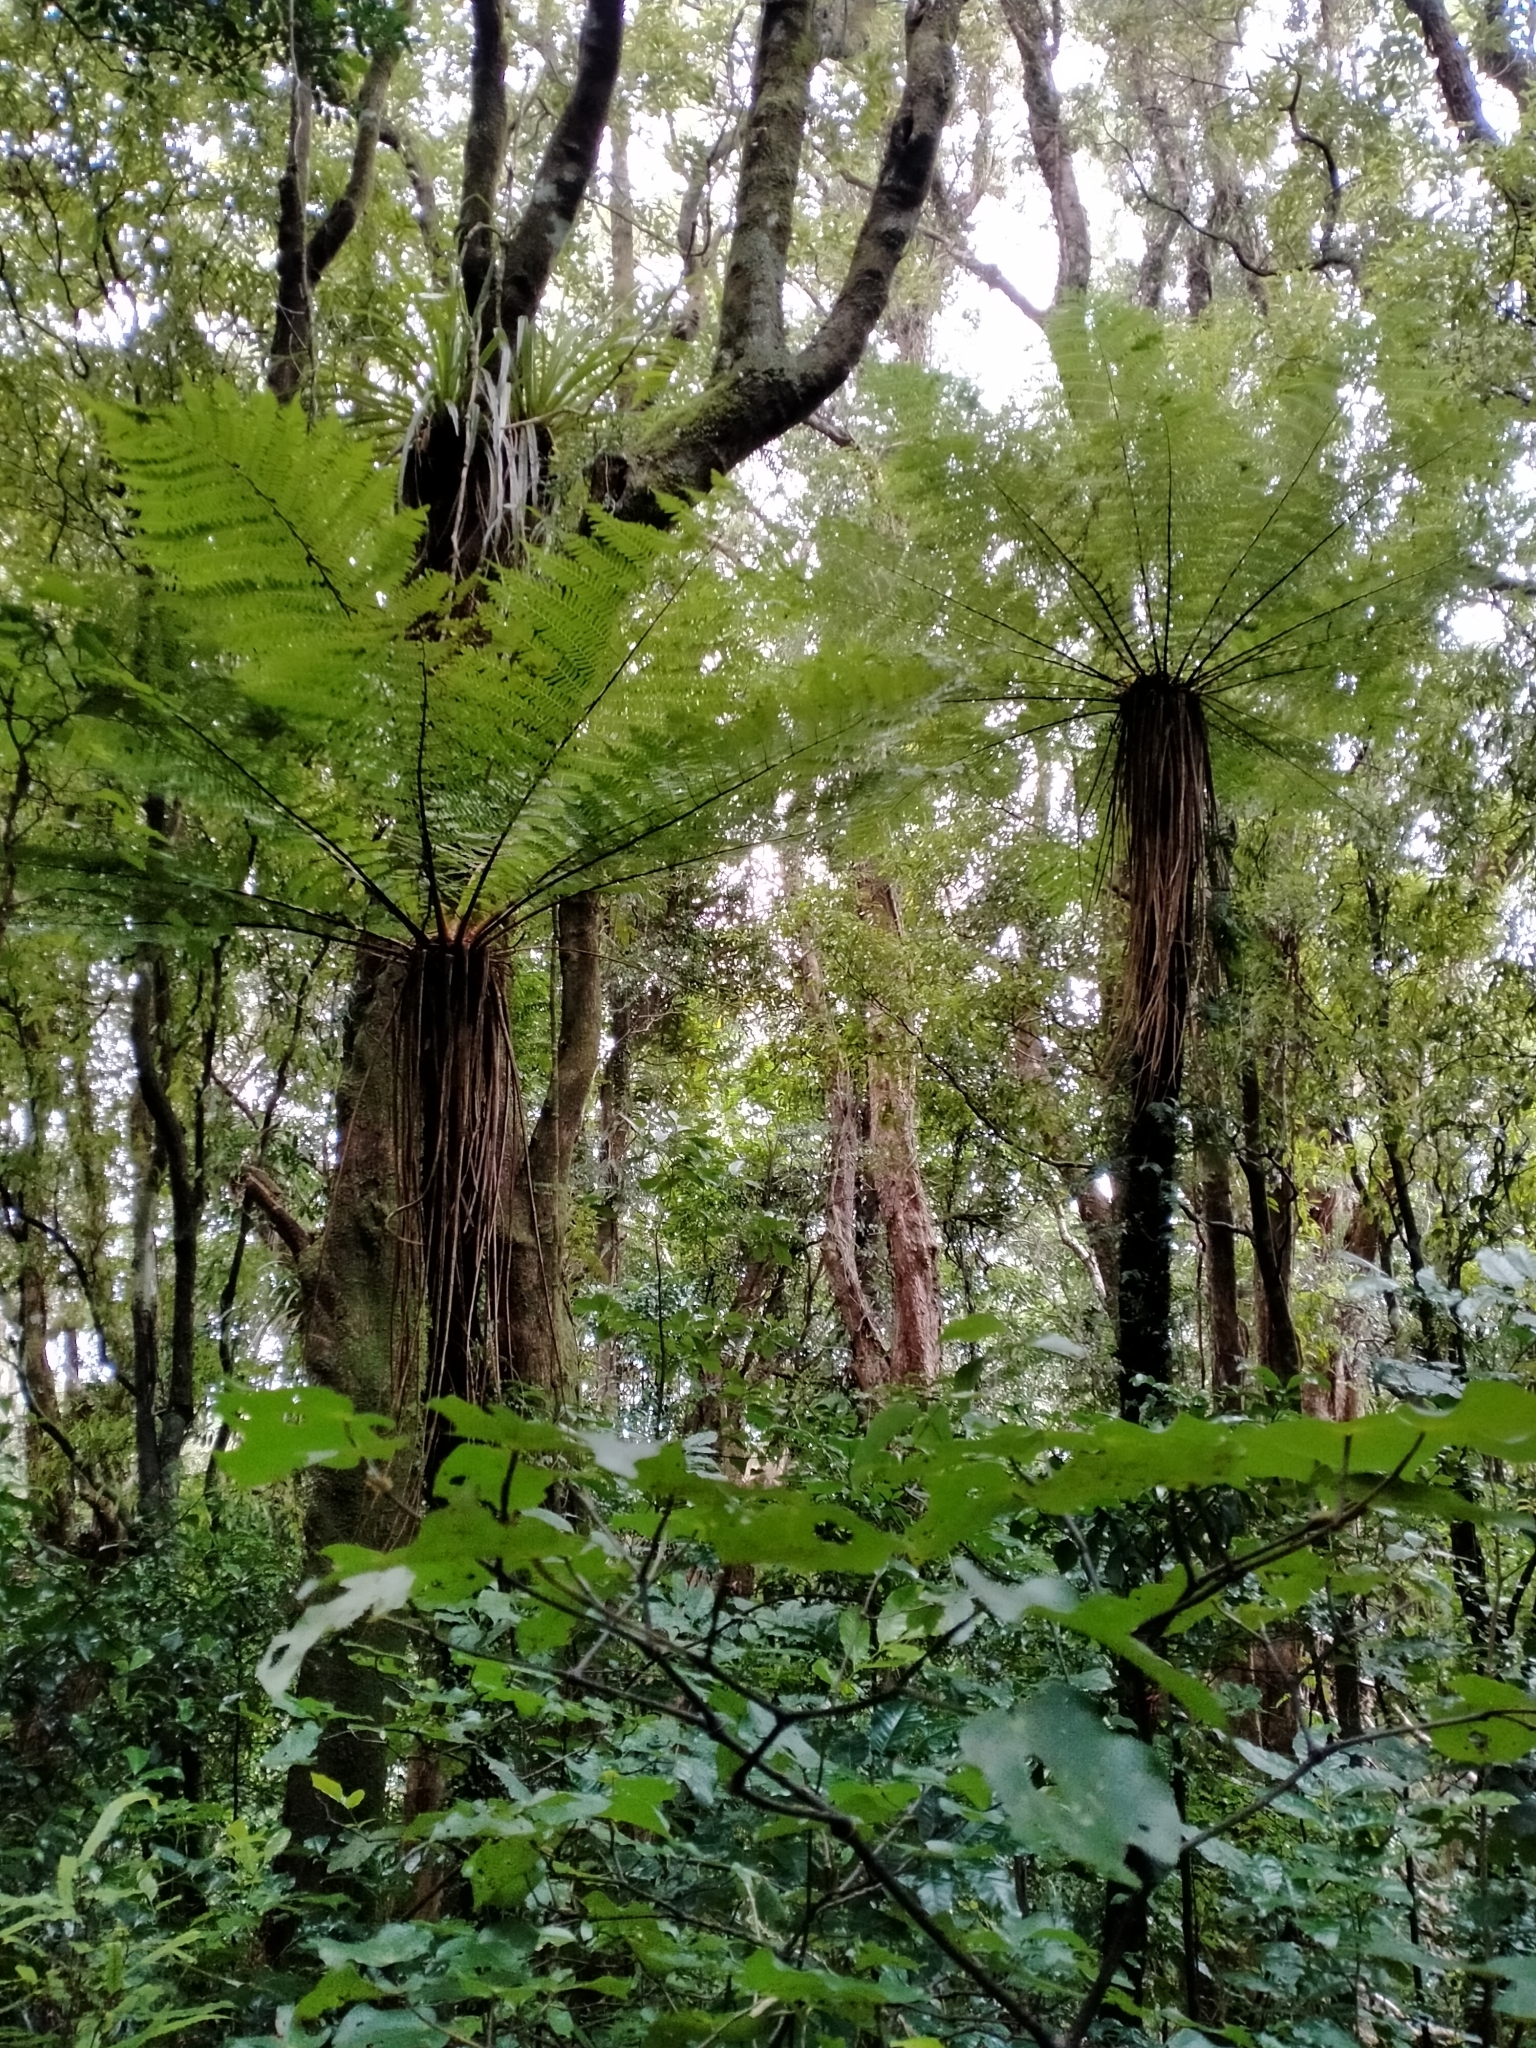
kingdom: Plantae
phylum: Tracheophyta
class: Polypodiopsida
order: Cyatheales
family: Cyatheaceae
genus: Alsophila
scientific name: Alsophila smithii
